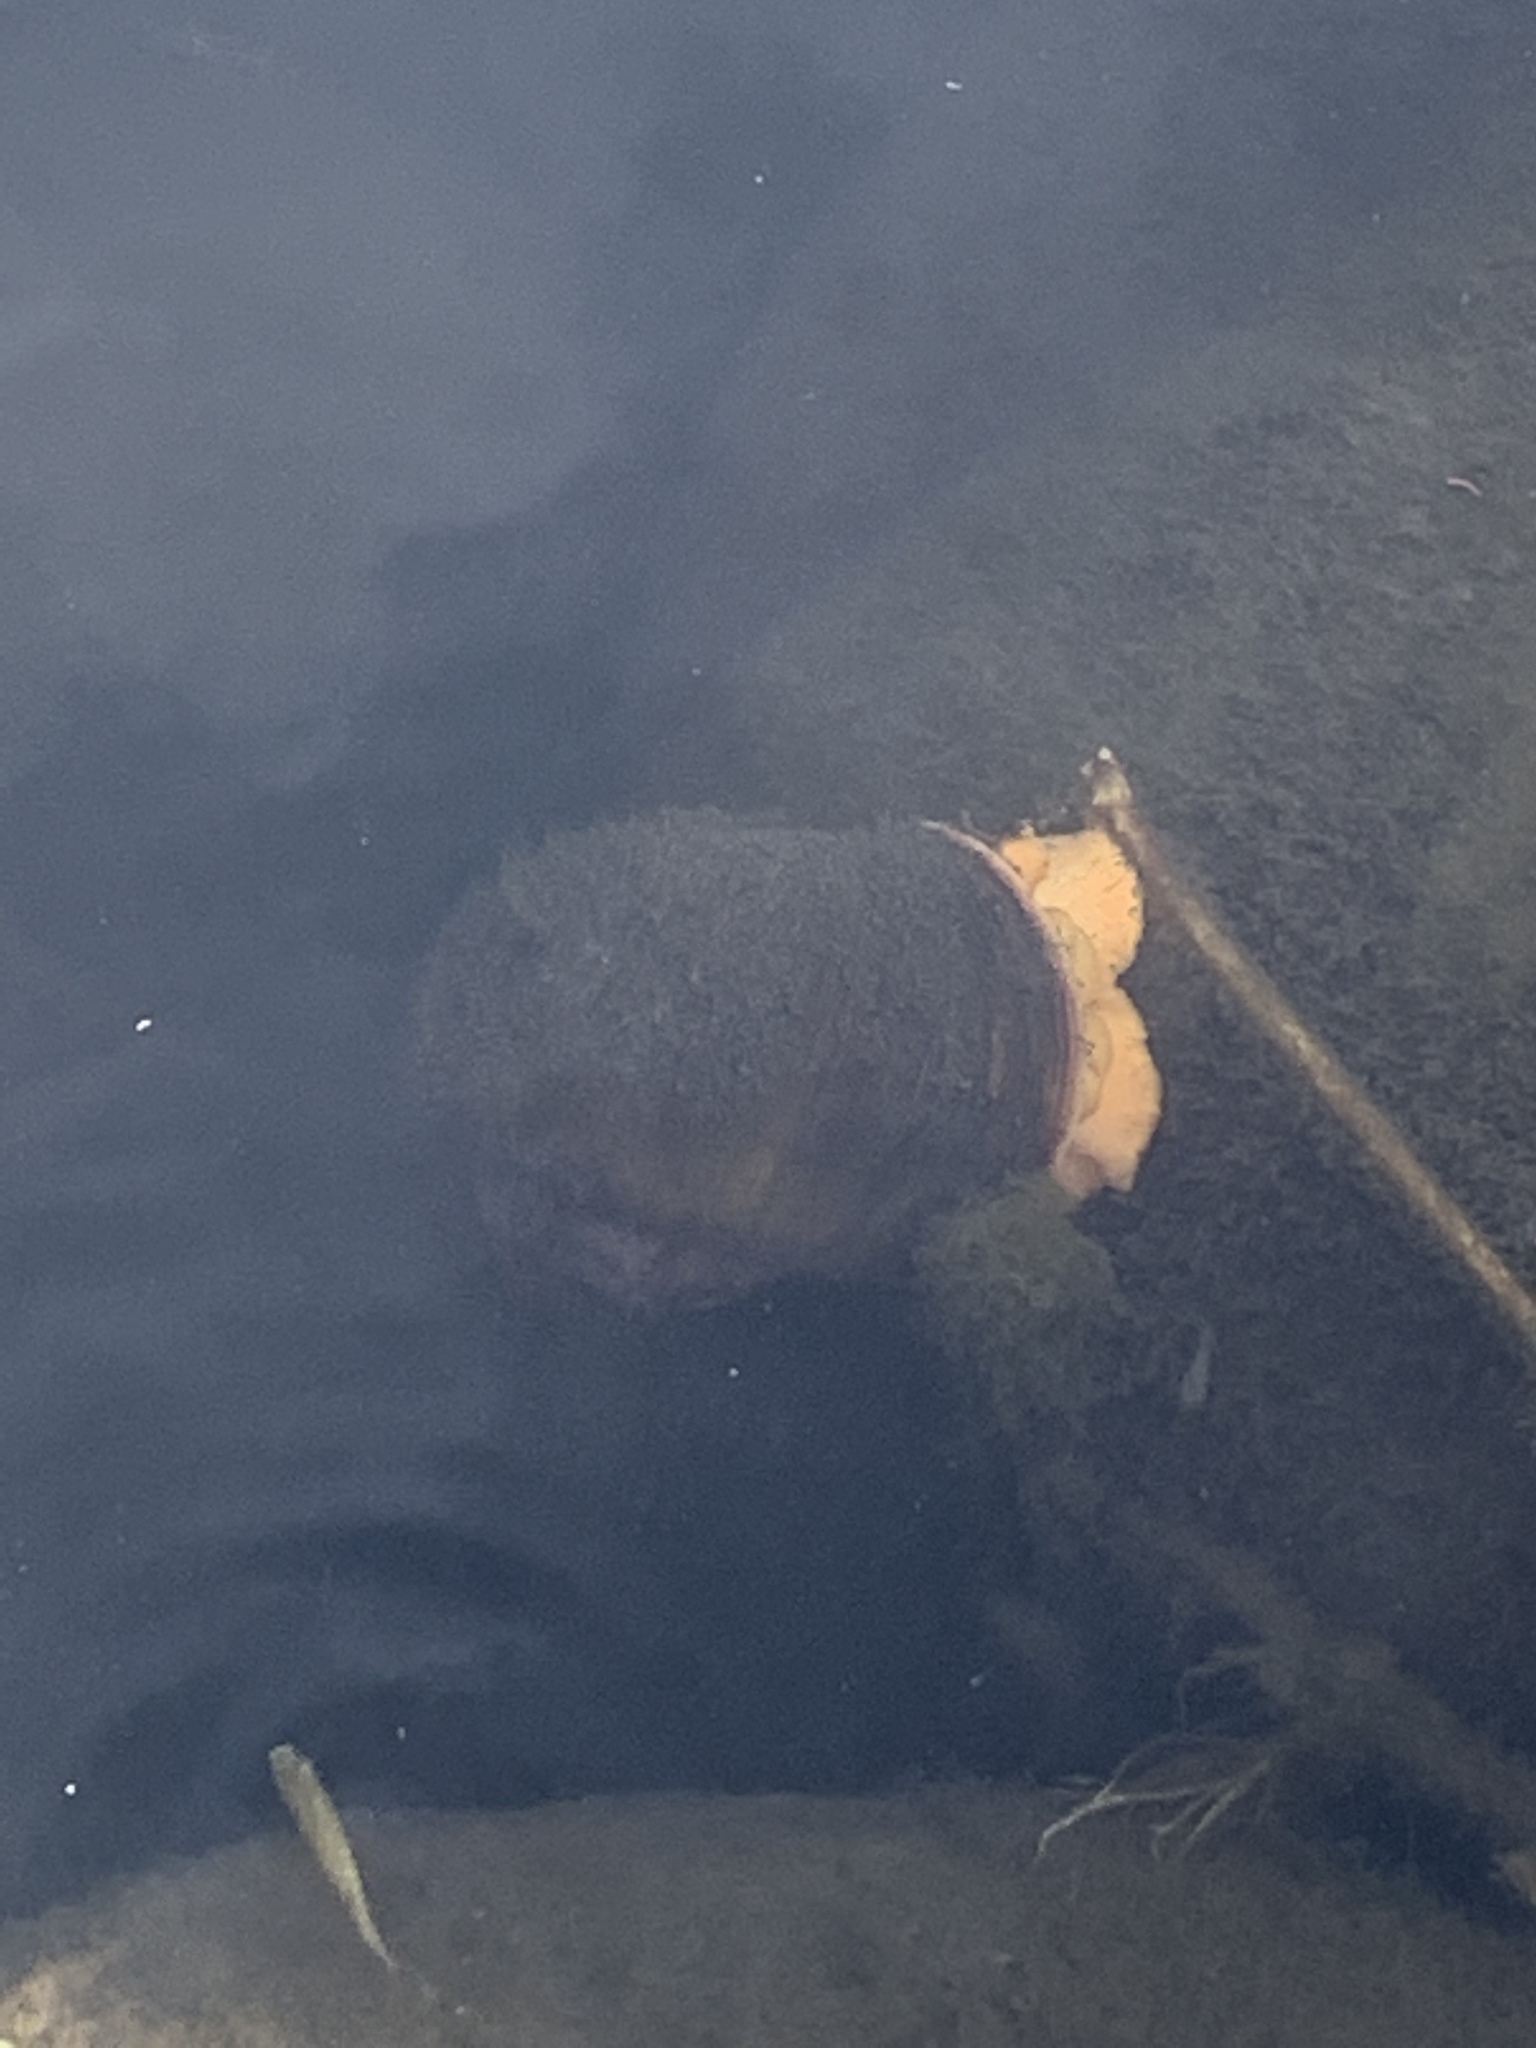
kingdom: Animalia
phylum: Mollusca
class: Gastropoda
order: Architaenioglossa
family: Ampullariidae
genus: Pomacea
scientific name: Pomacea canaliculata
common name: Channeled applesnail
